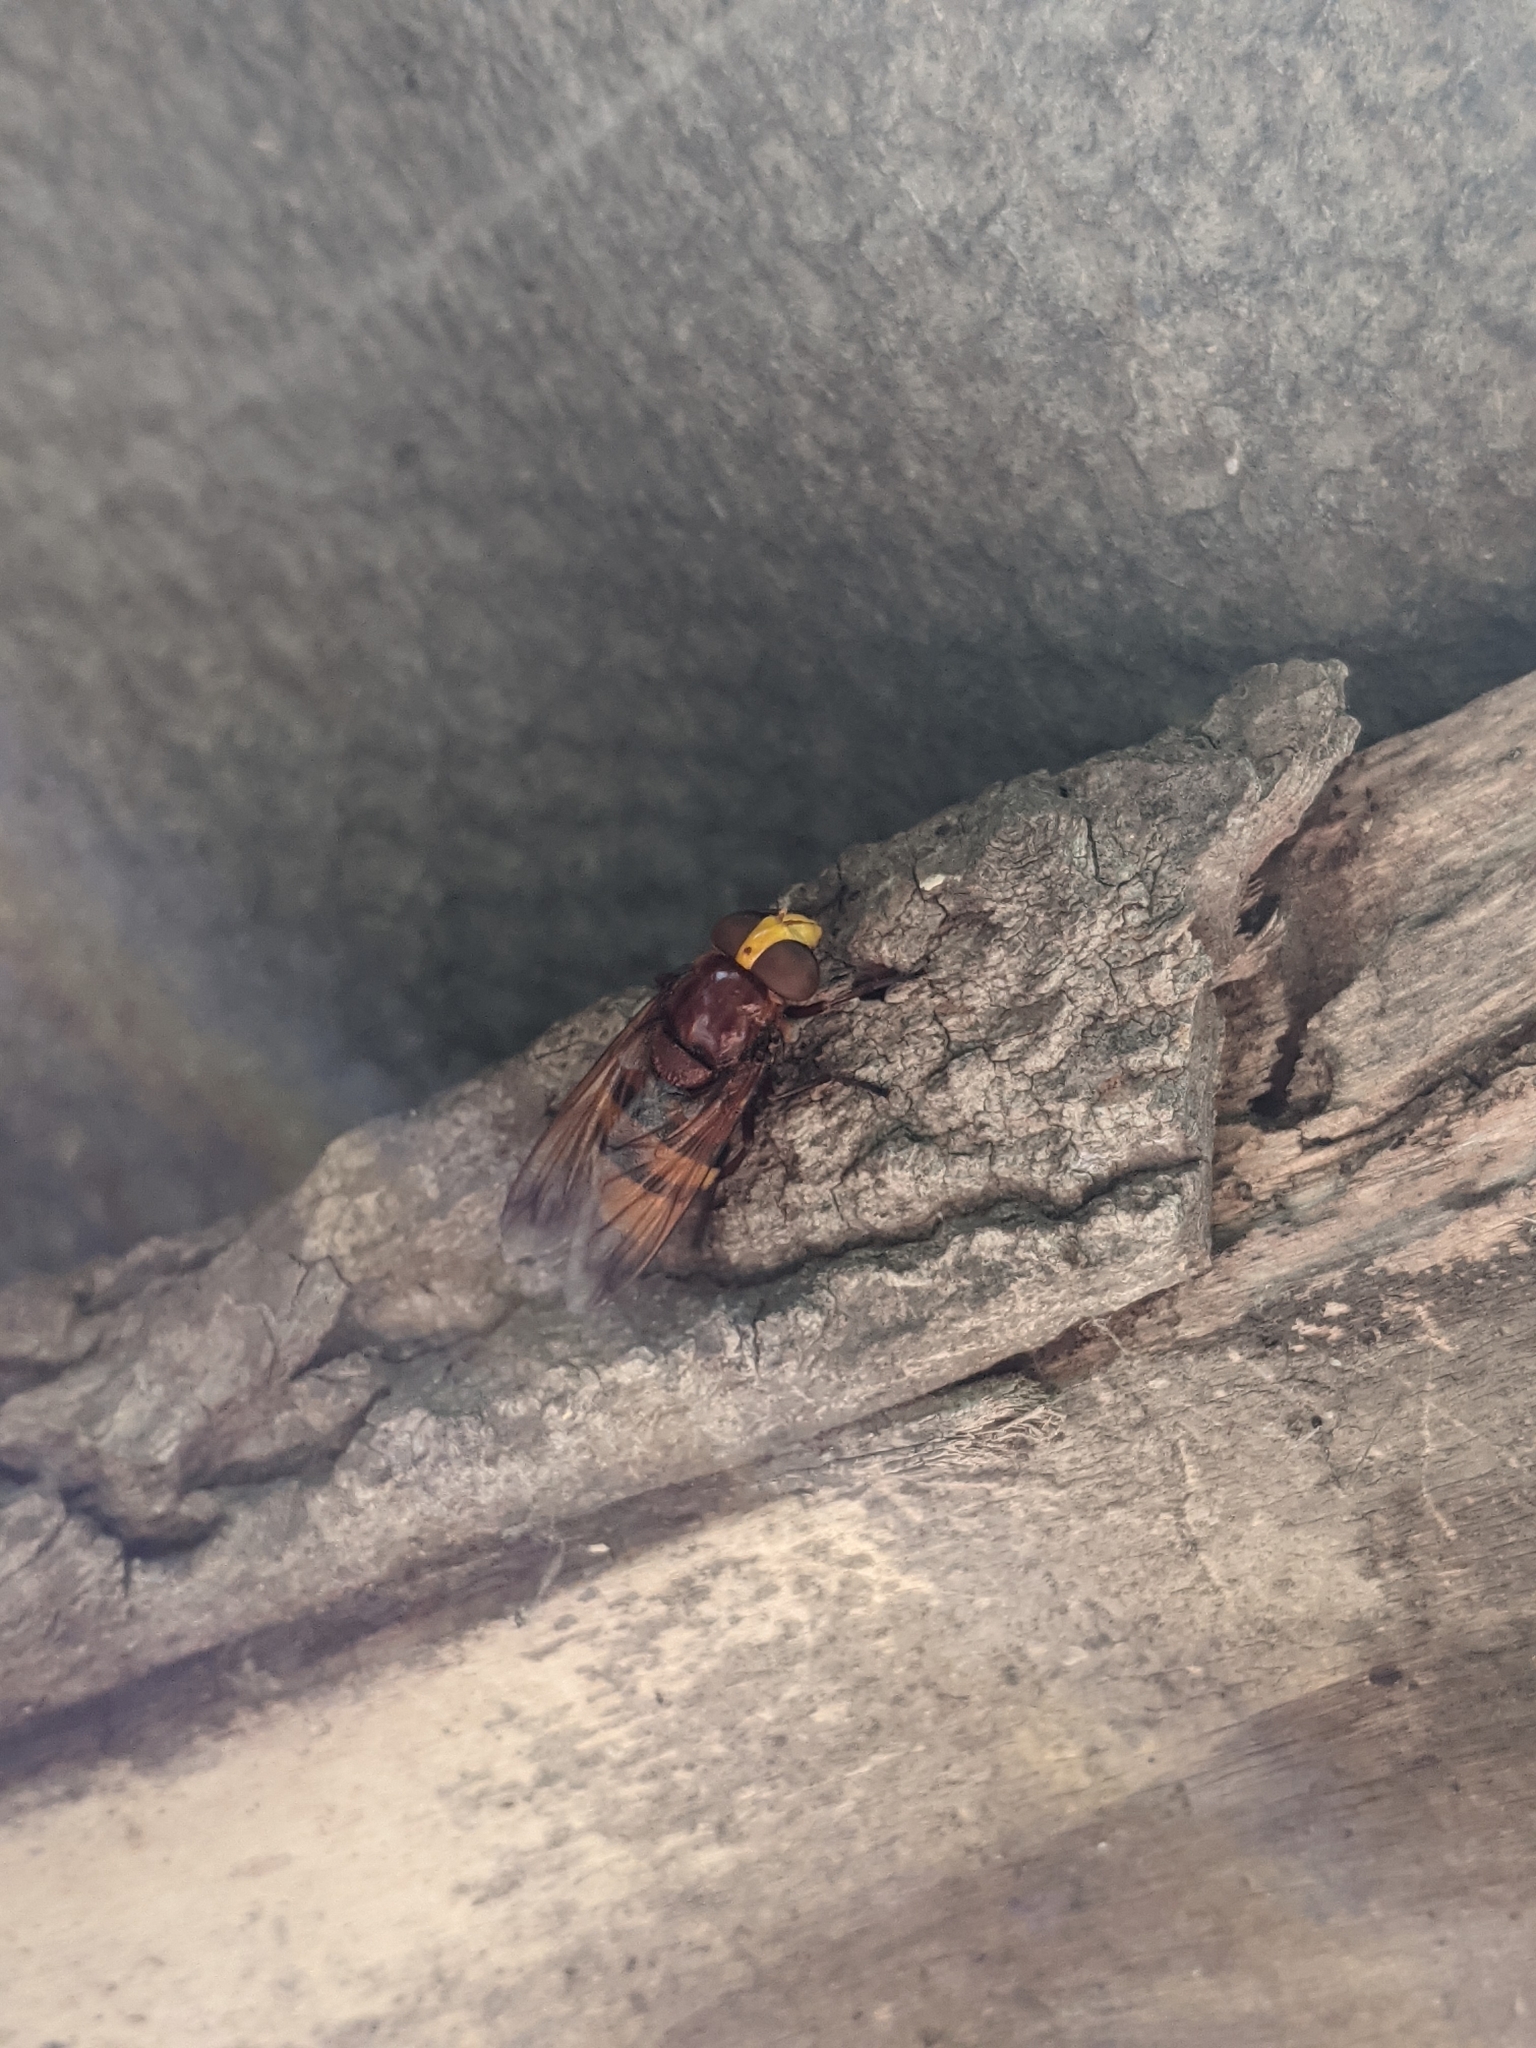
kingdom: Animalia
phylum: Arthropoda
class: Insecta
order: Diptera
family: Syrphidae
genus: Volucella
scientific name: Volucella zonaria
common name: Hornet hoverfly
